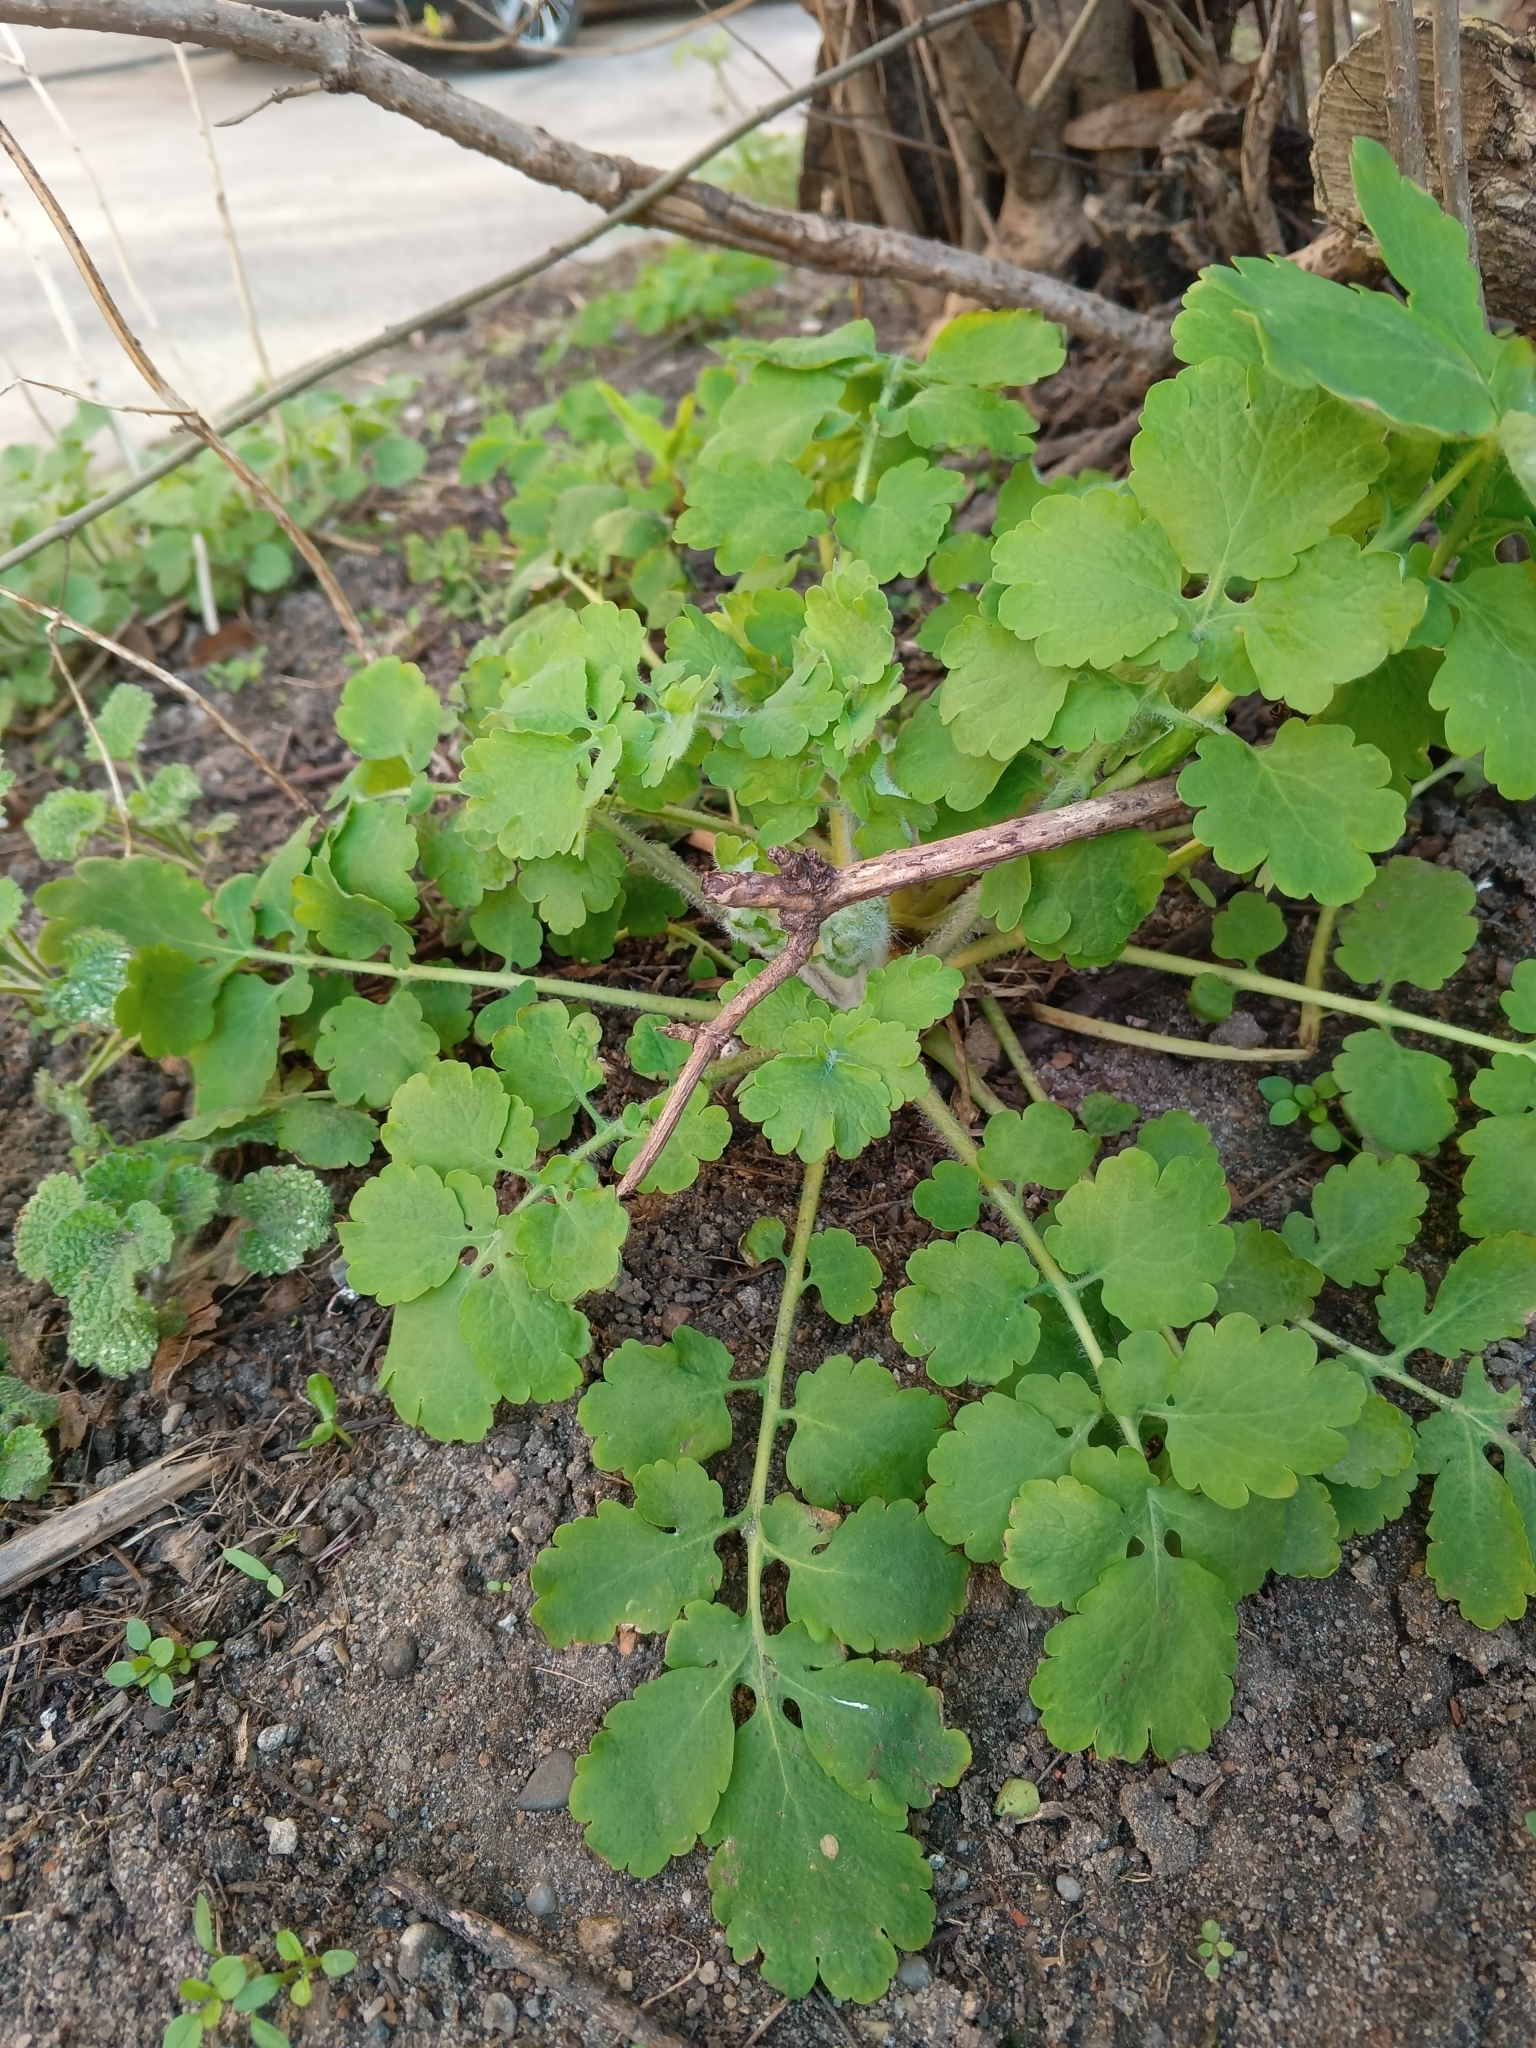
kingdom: Plantae
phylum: Tracheophyta
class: Magnoliopsida
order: Ranunculales
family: Papaveraceae
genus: Chelidonium
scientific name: Chelidonium majus
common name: Greater celandine
